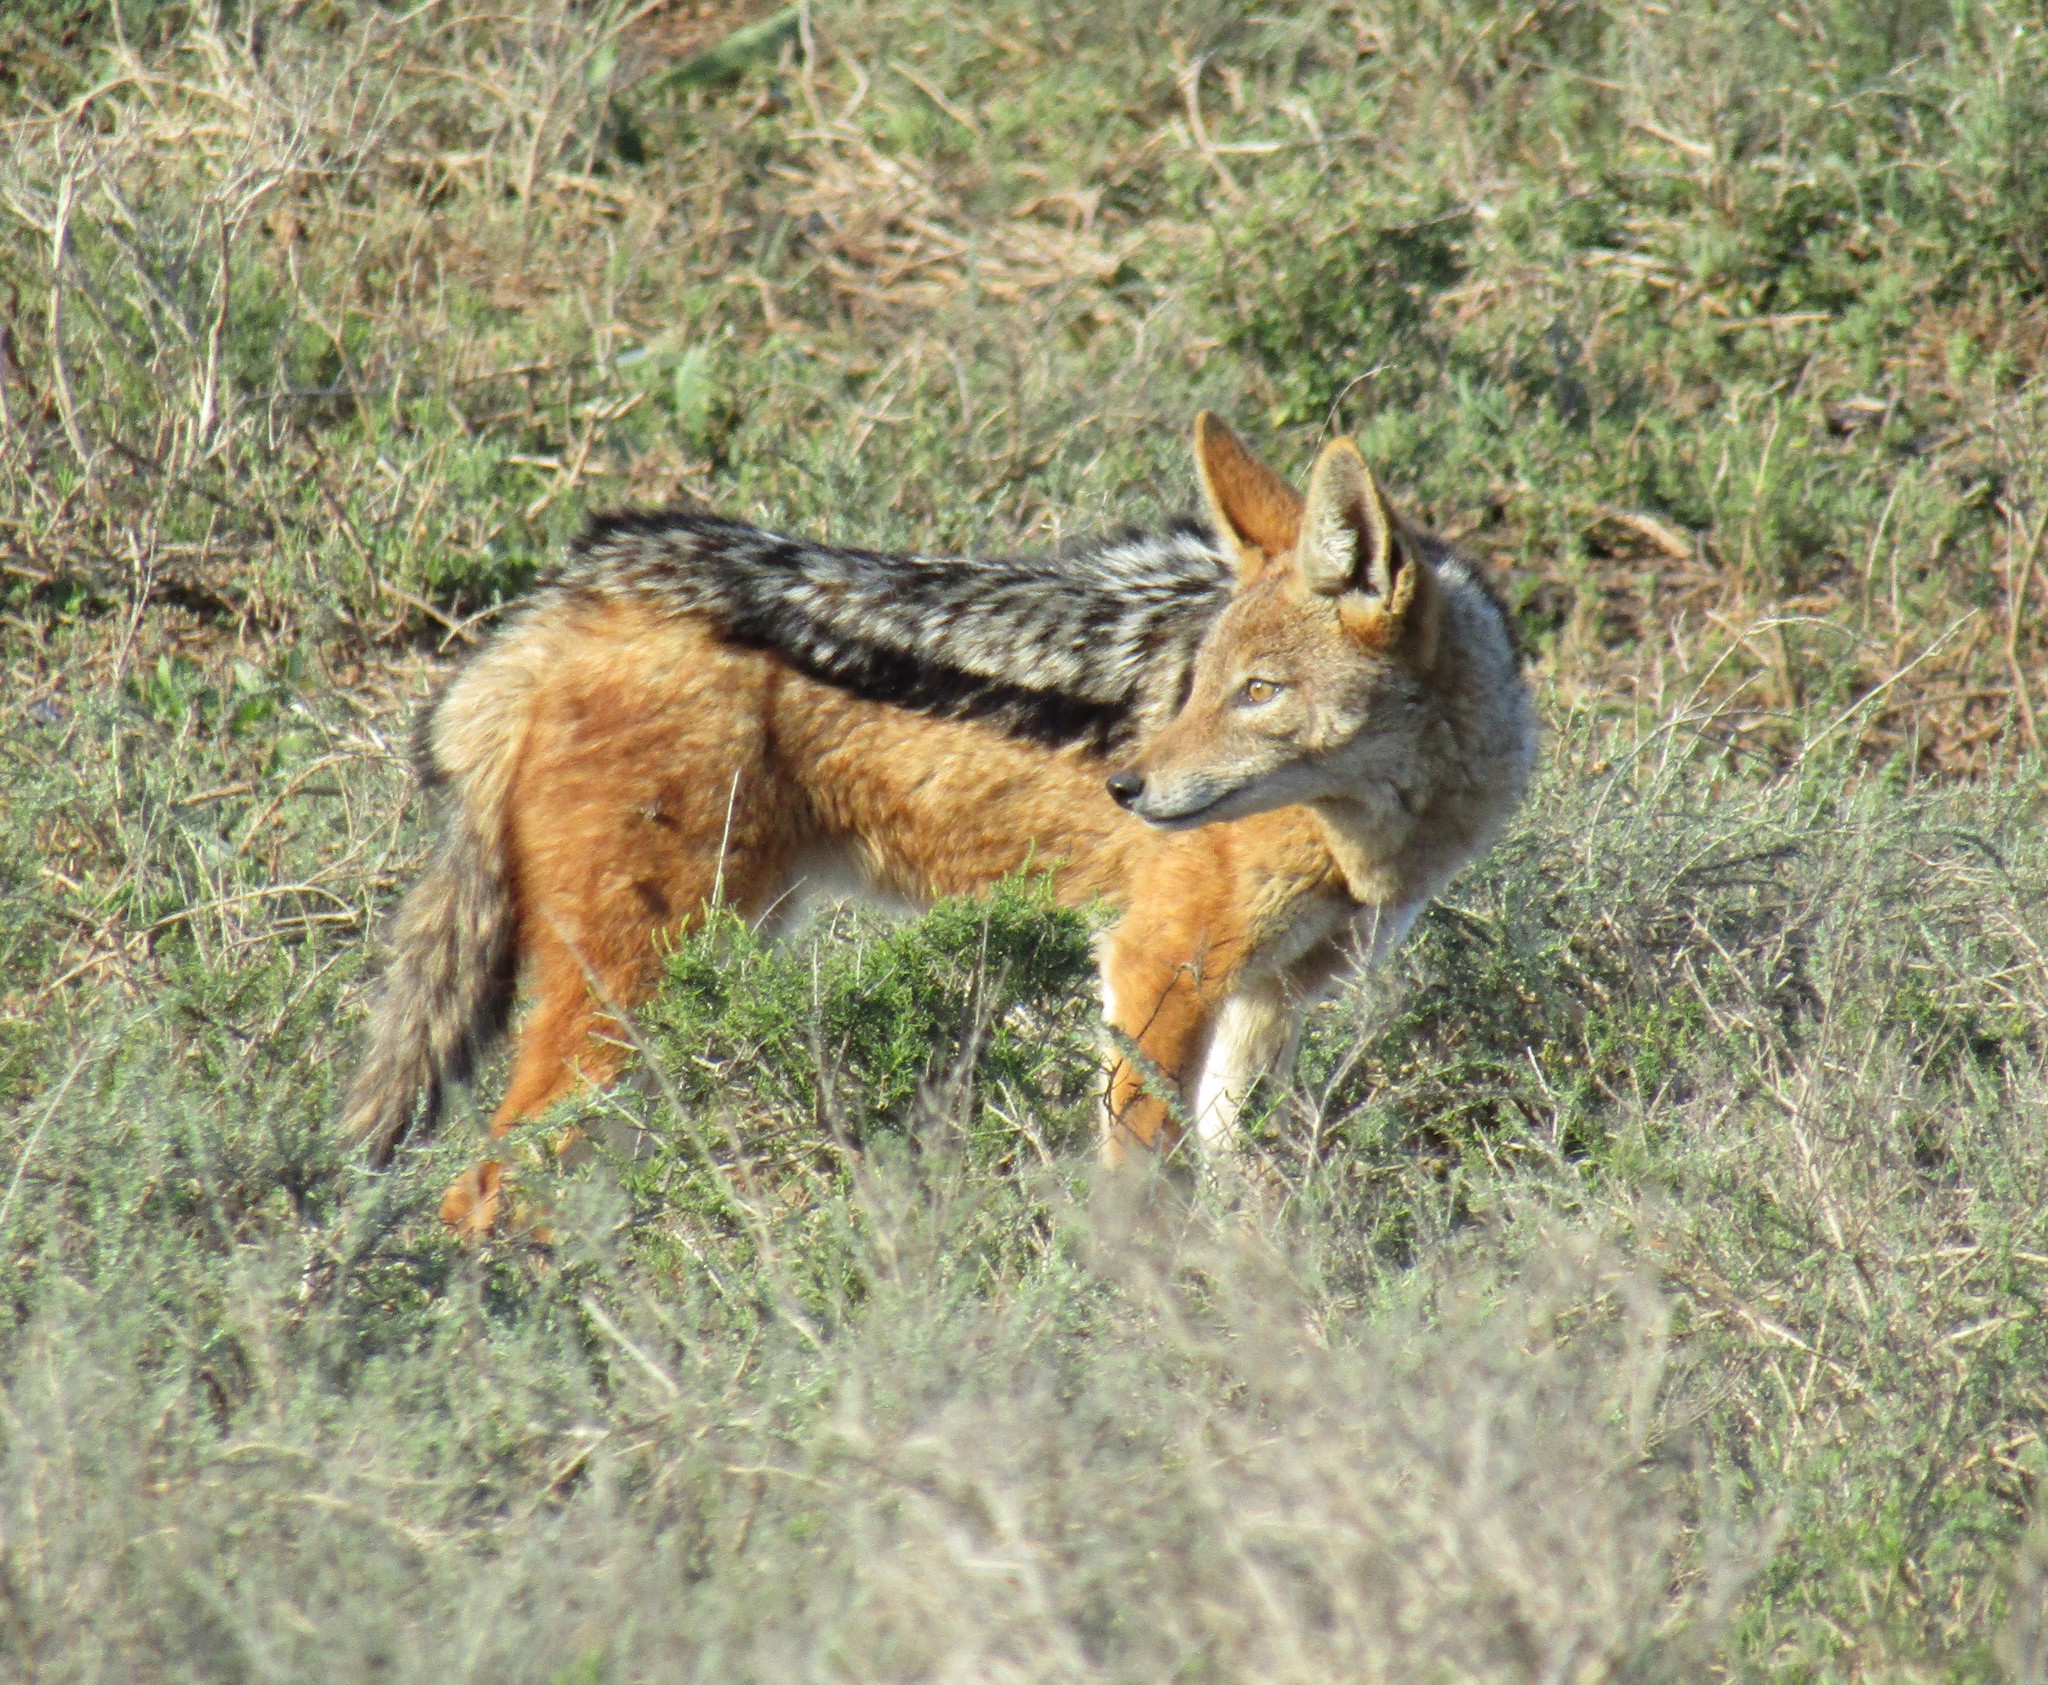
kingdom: Animalia
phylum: Chordata
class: Mammalia
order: Carnivora
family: Canidae
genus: Lupulella
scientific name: Lupulella
